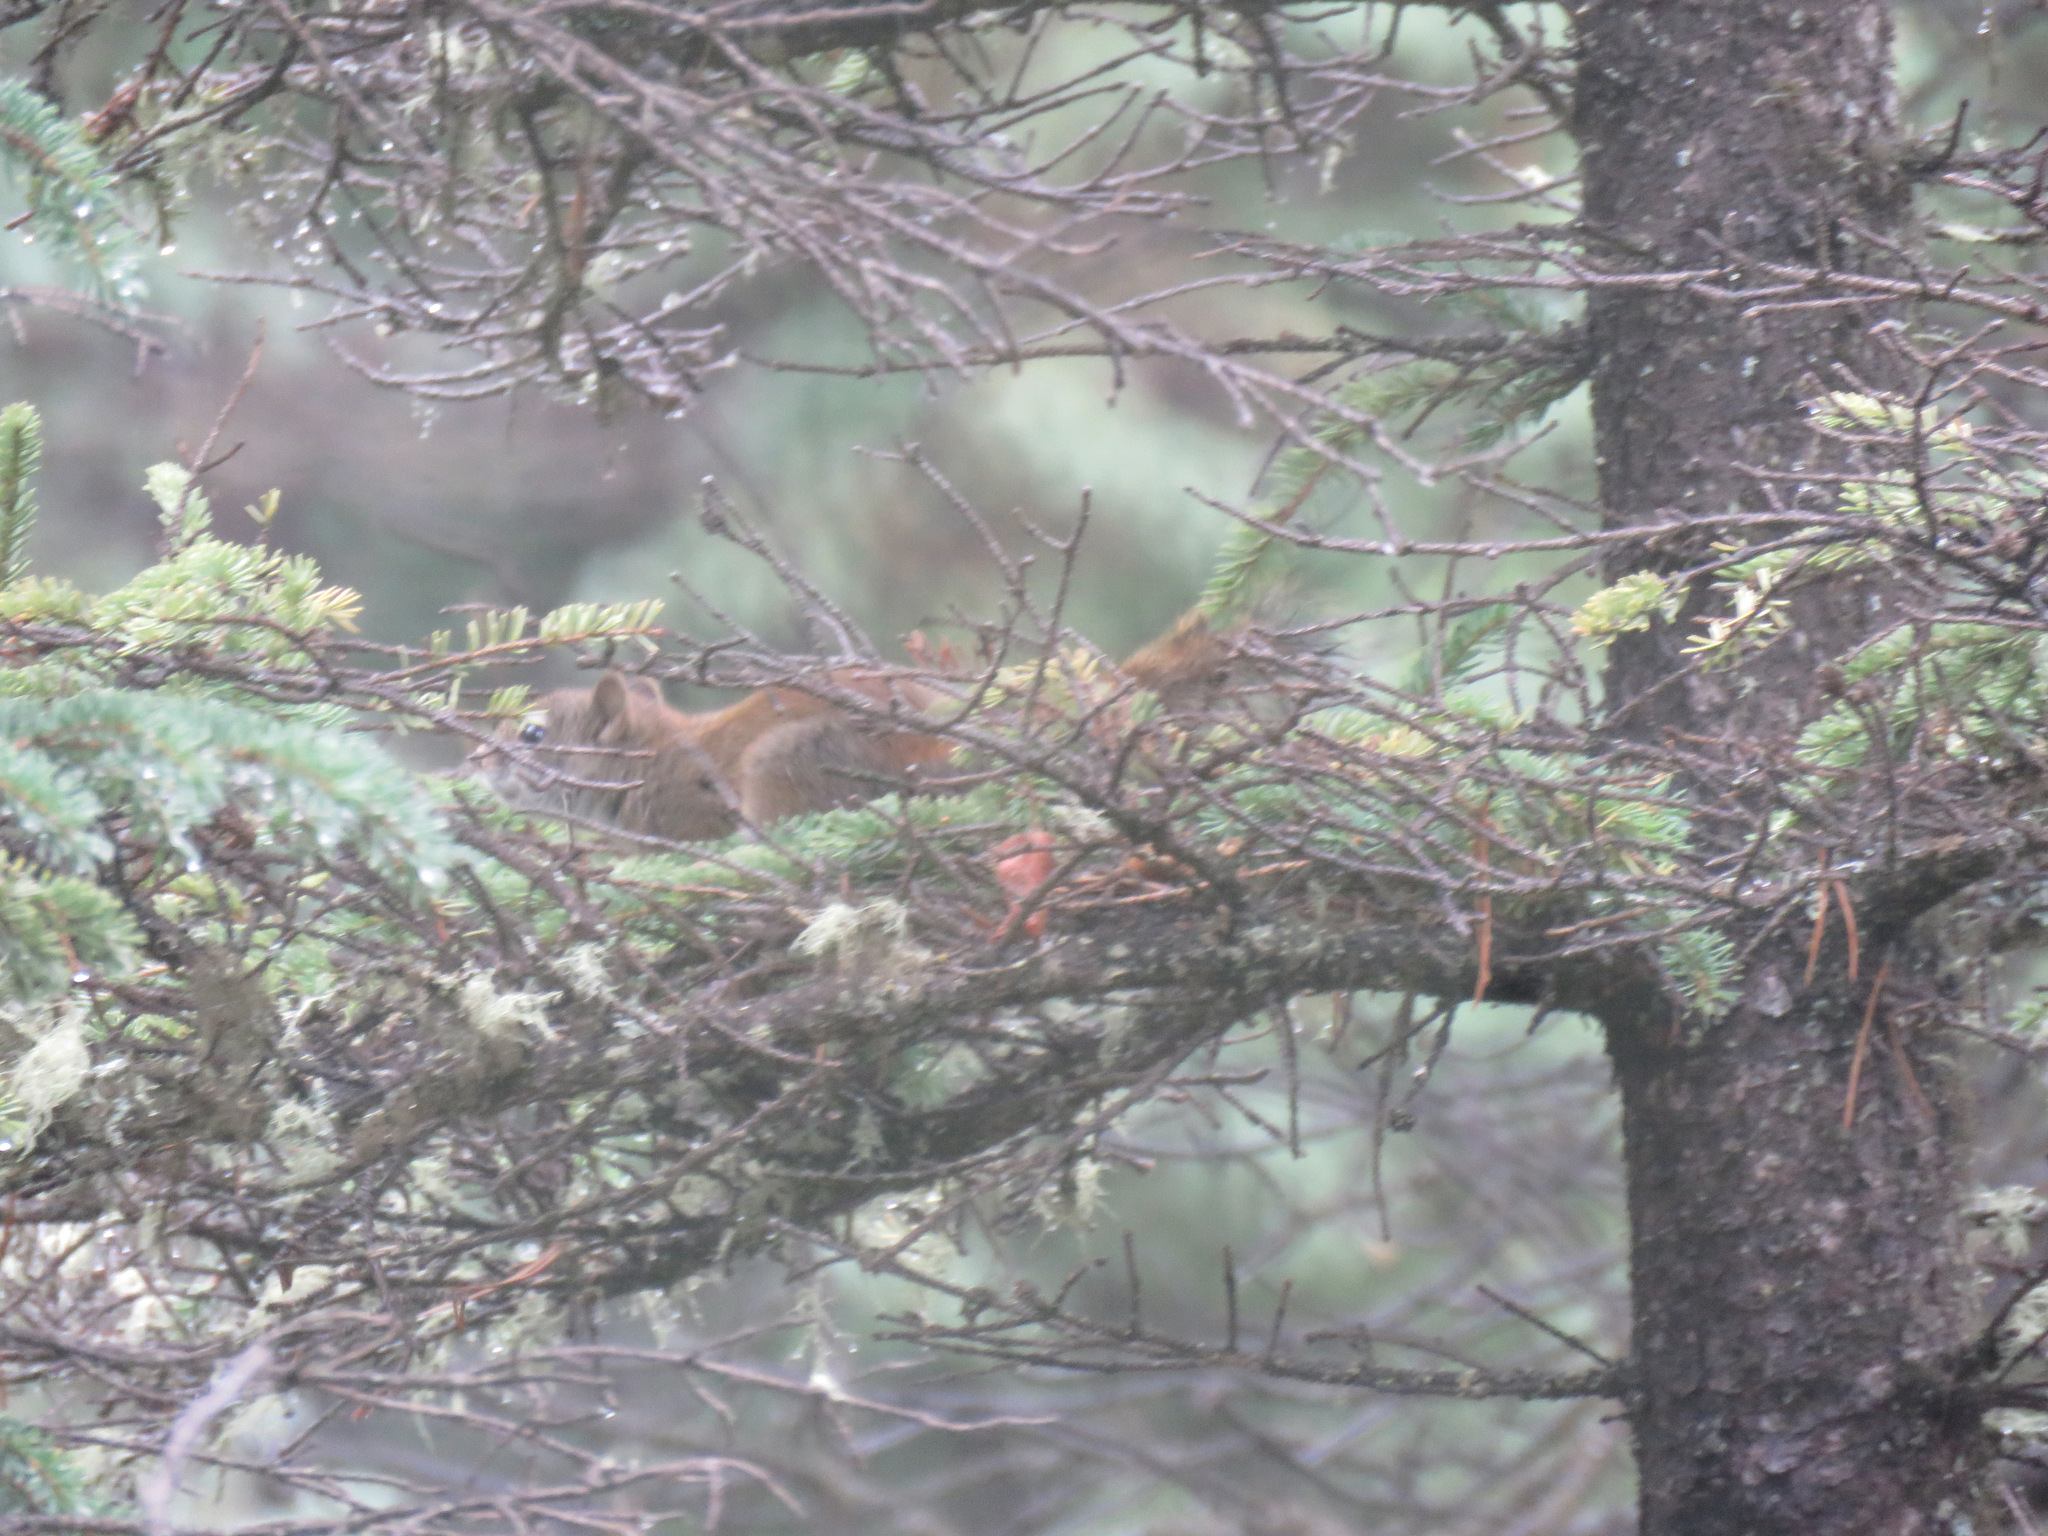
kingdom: Animalia
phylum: Chordata
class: Mammalia
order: Rodentia
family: Sciuridae
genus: Tamiasciurus
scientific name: Tamiasciurus hudsonicus
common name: Red squirrel
